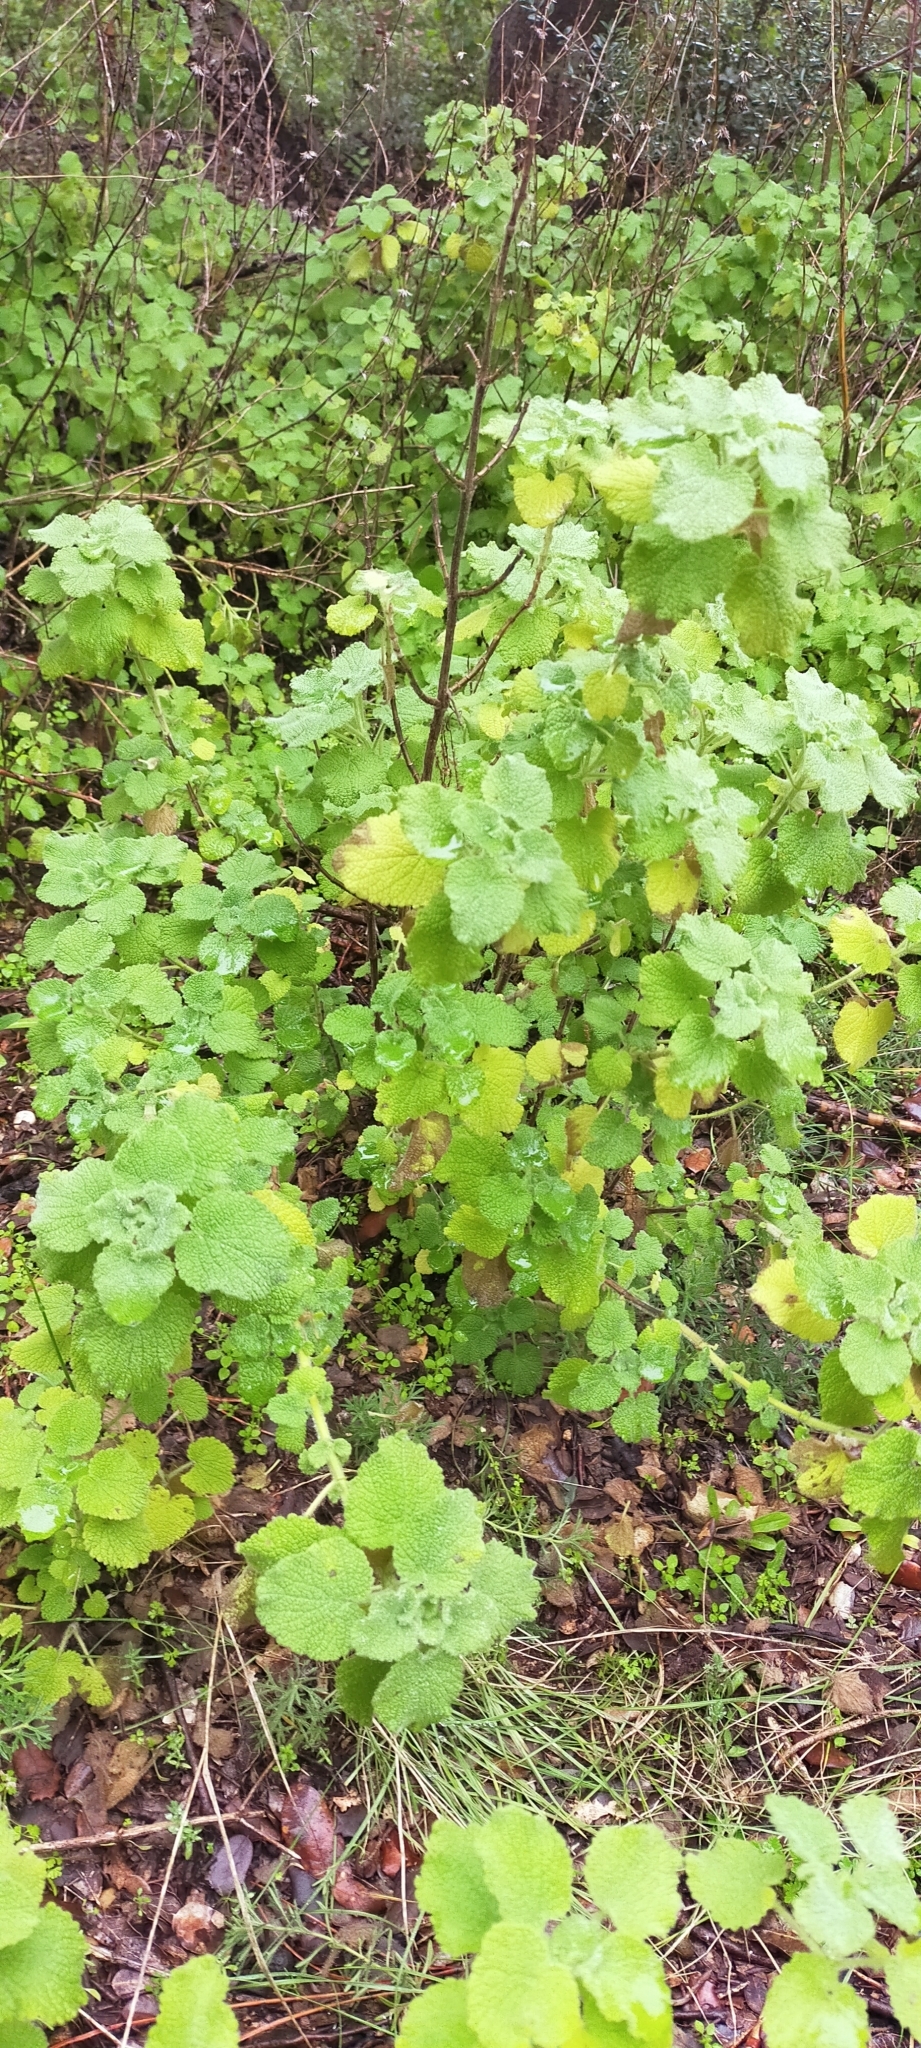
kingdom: Plantae
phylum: Tracheophyta
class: Magnoliopsida
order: Lamiales
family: Lamiaceae
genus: Pseudodictamnus
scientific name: Pseudodictamnus hirsutus
